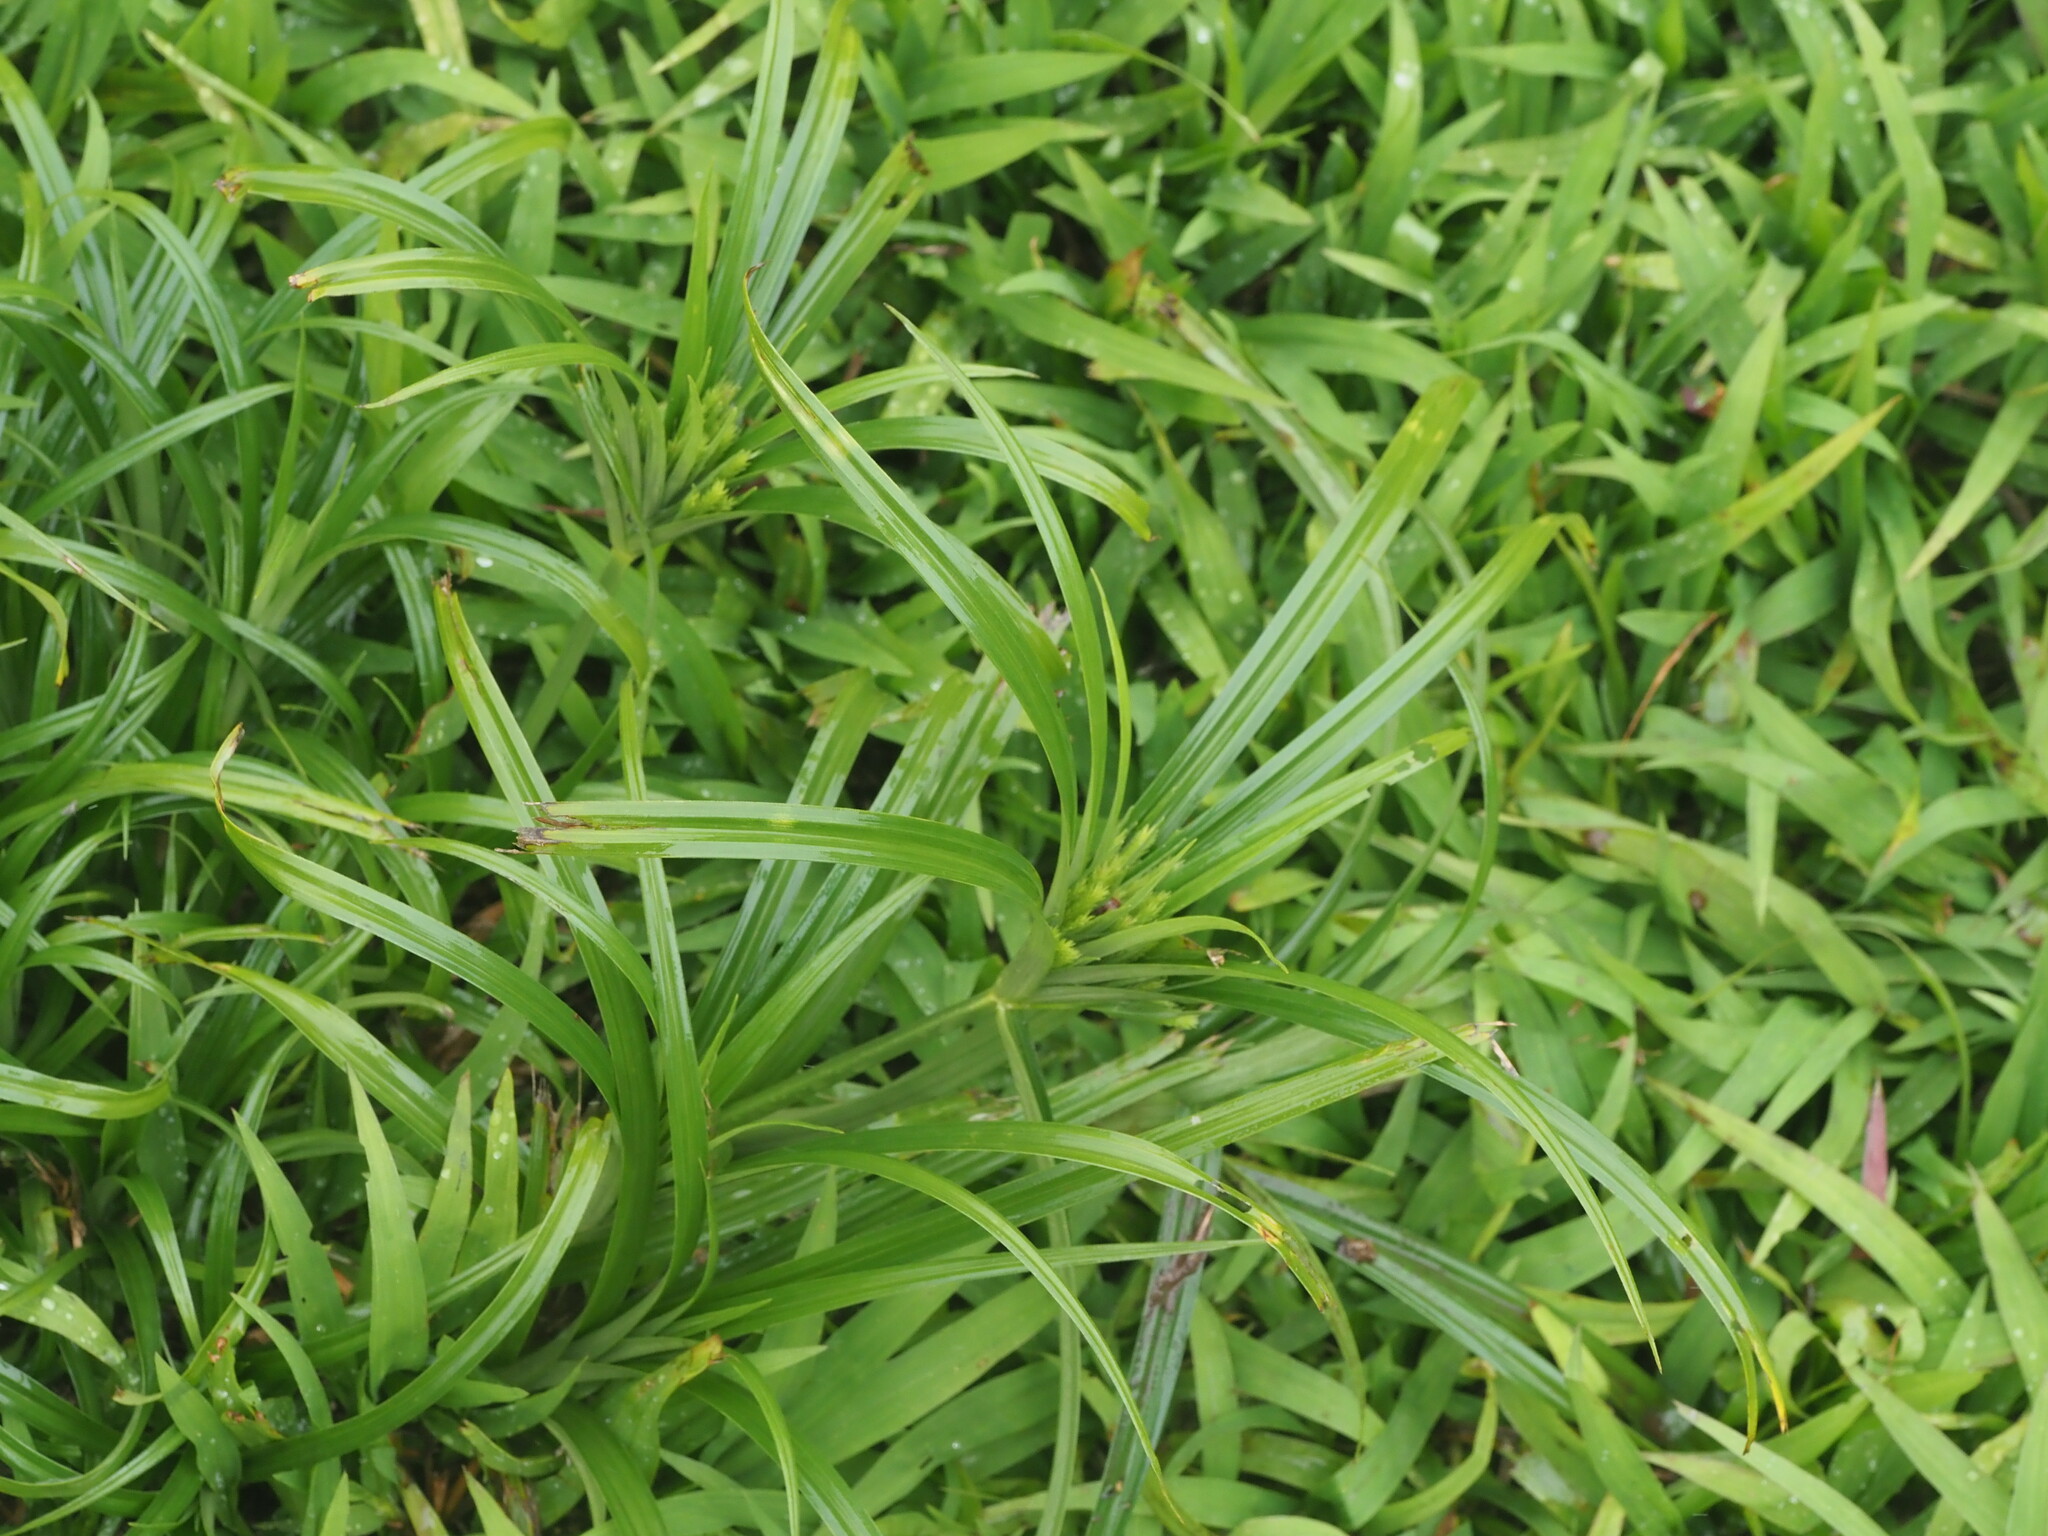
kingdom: Plantae
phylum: Tracheophyta
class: Liliopsida
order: Poales
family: Cyperaceae
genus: Cyperus
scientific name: Cyperus meyenianus
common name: Meyen's flatsedge
